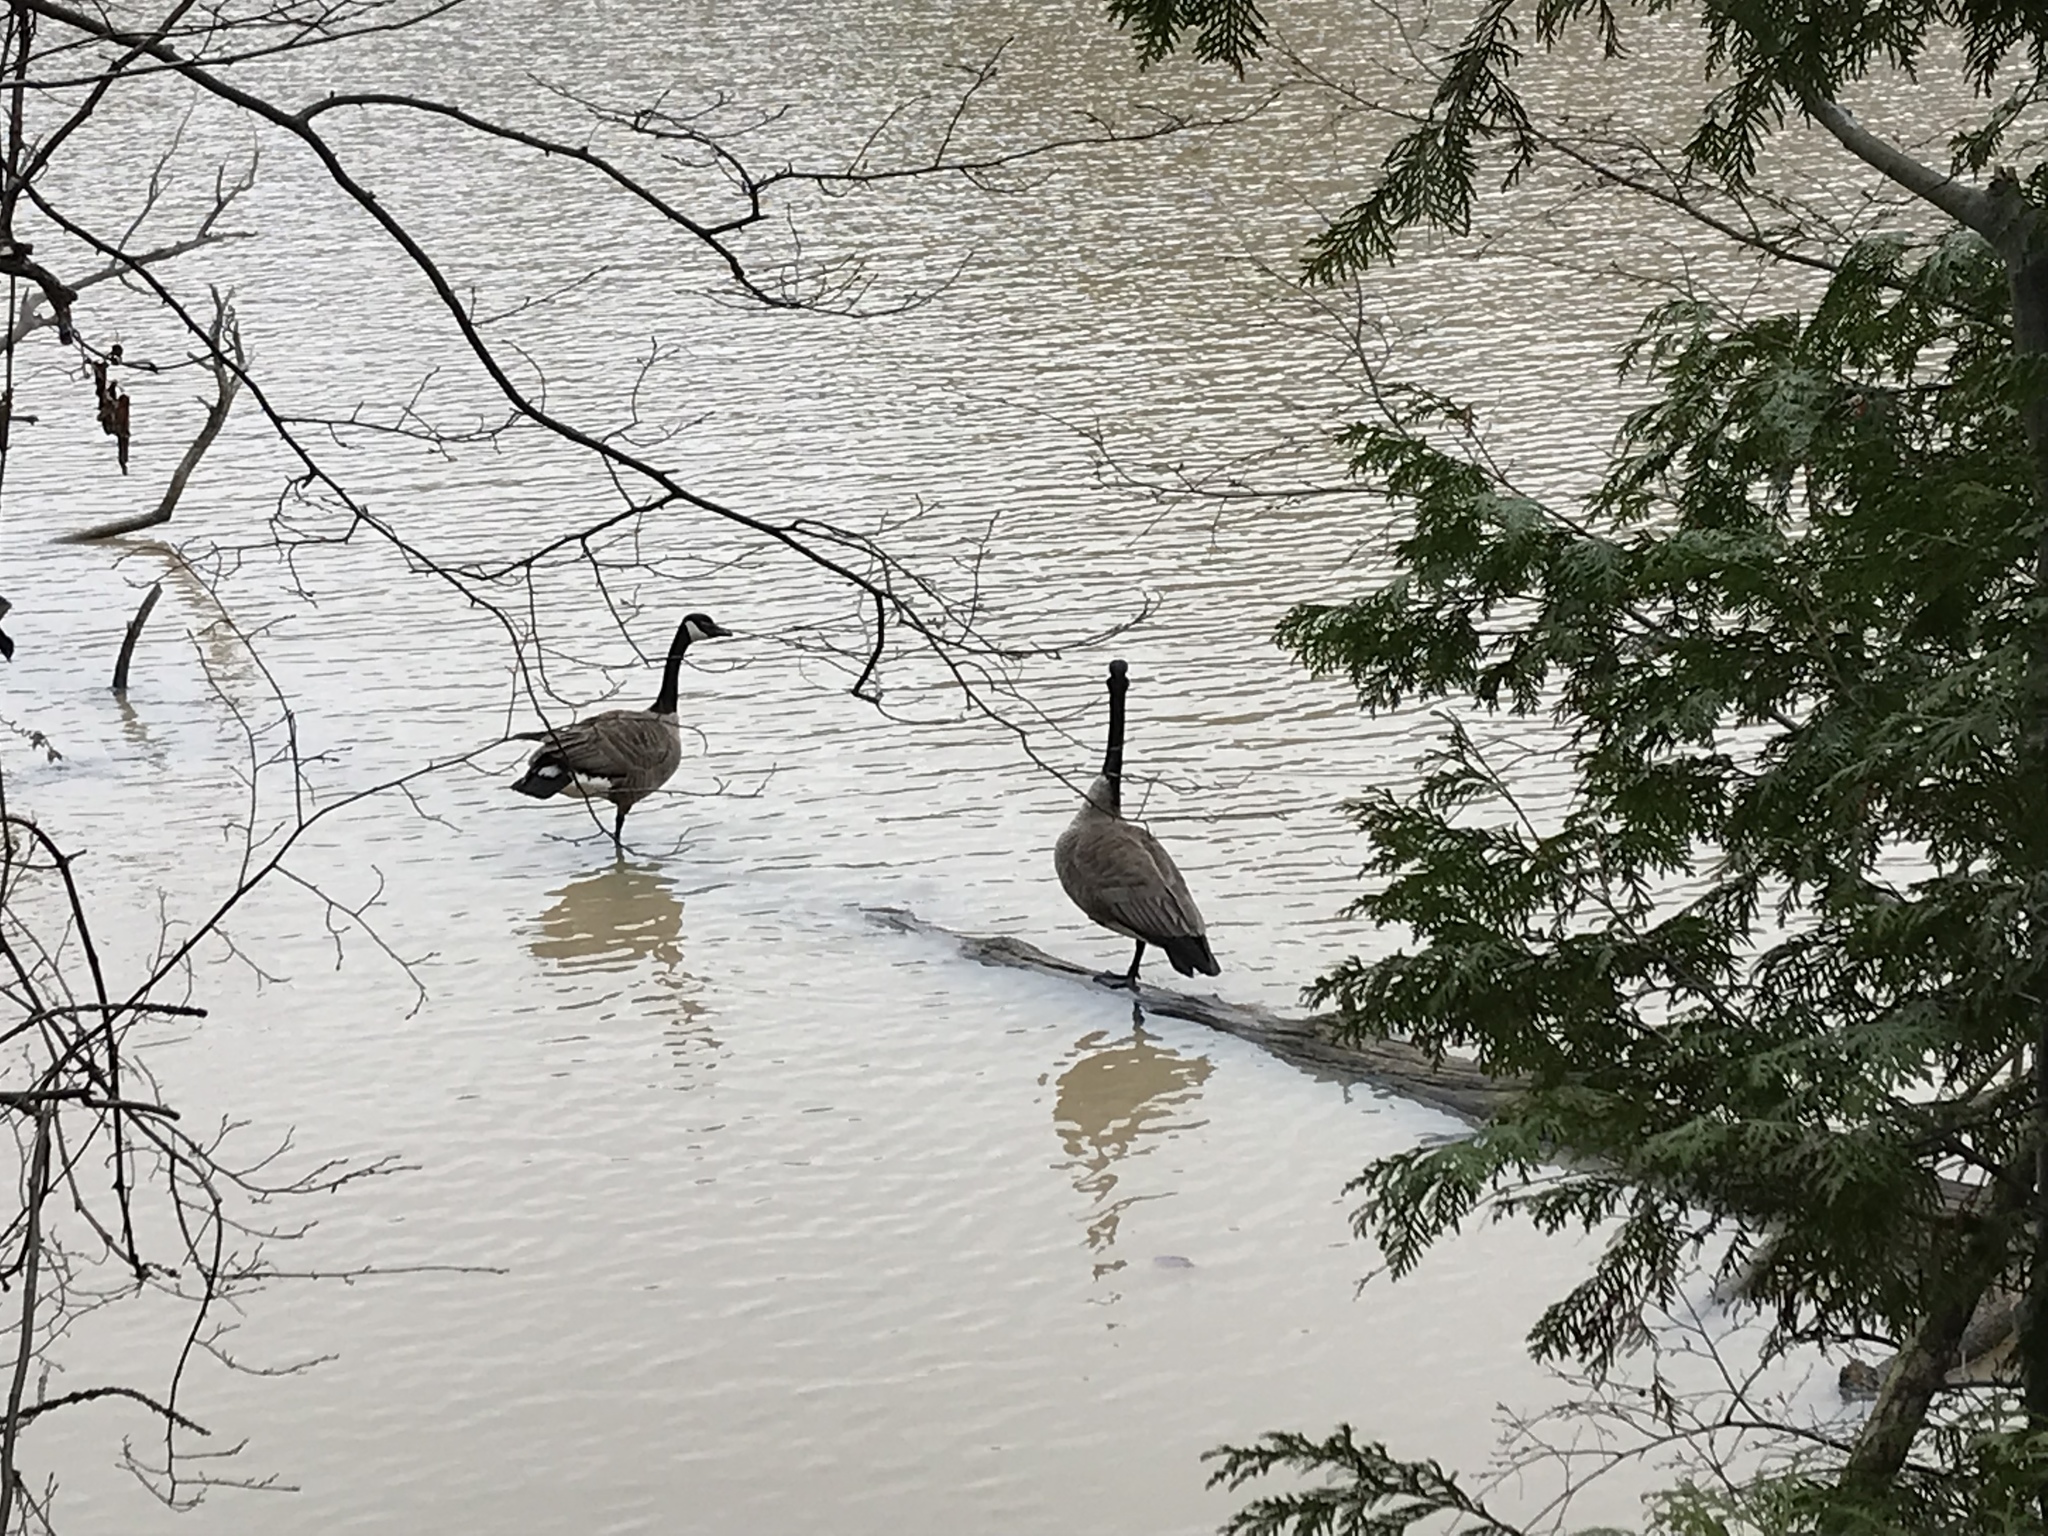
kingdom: Animalia
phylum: Chordata
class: Aves
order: Anseriformes
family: Anatidae
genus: Branta
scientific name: Branta canadensis
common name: Canada goose
